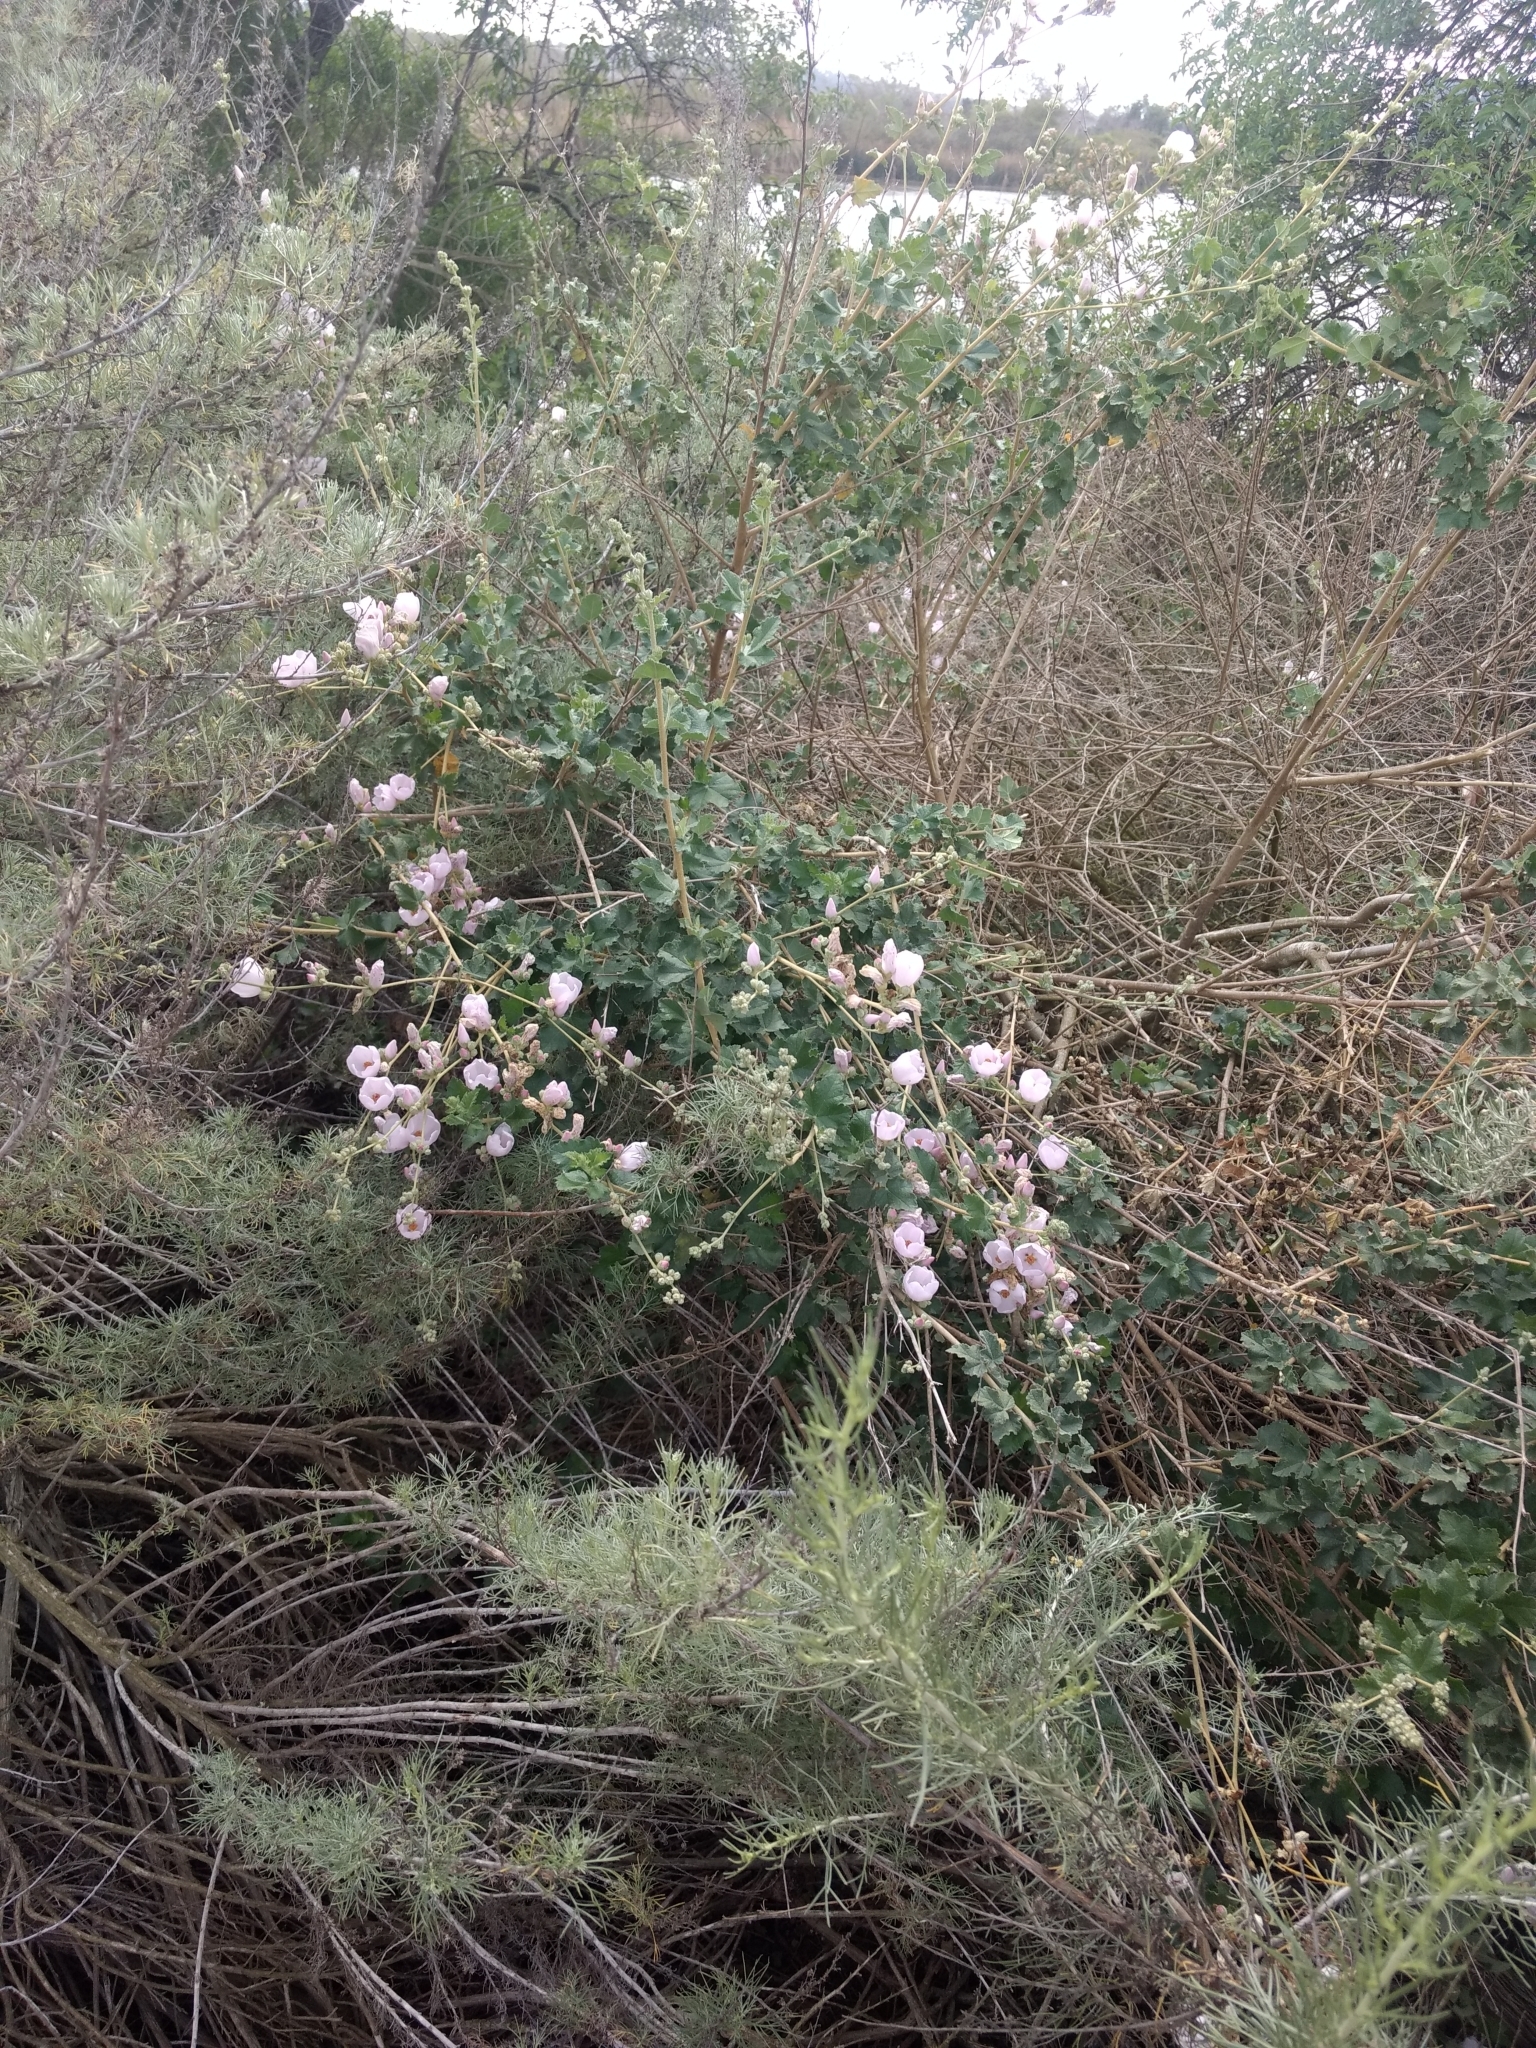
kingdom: Plantae
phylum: Tracheophyta
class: Magnoliopsida
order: Malvales
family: Malvaceae
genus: Malacothamnus
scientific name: Malacothamnus fasciculatus
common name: Sant cruz island bush-mallow
